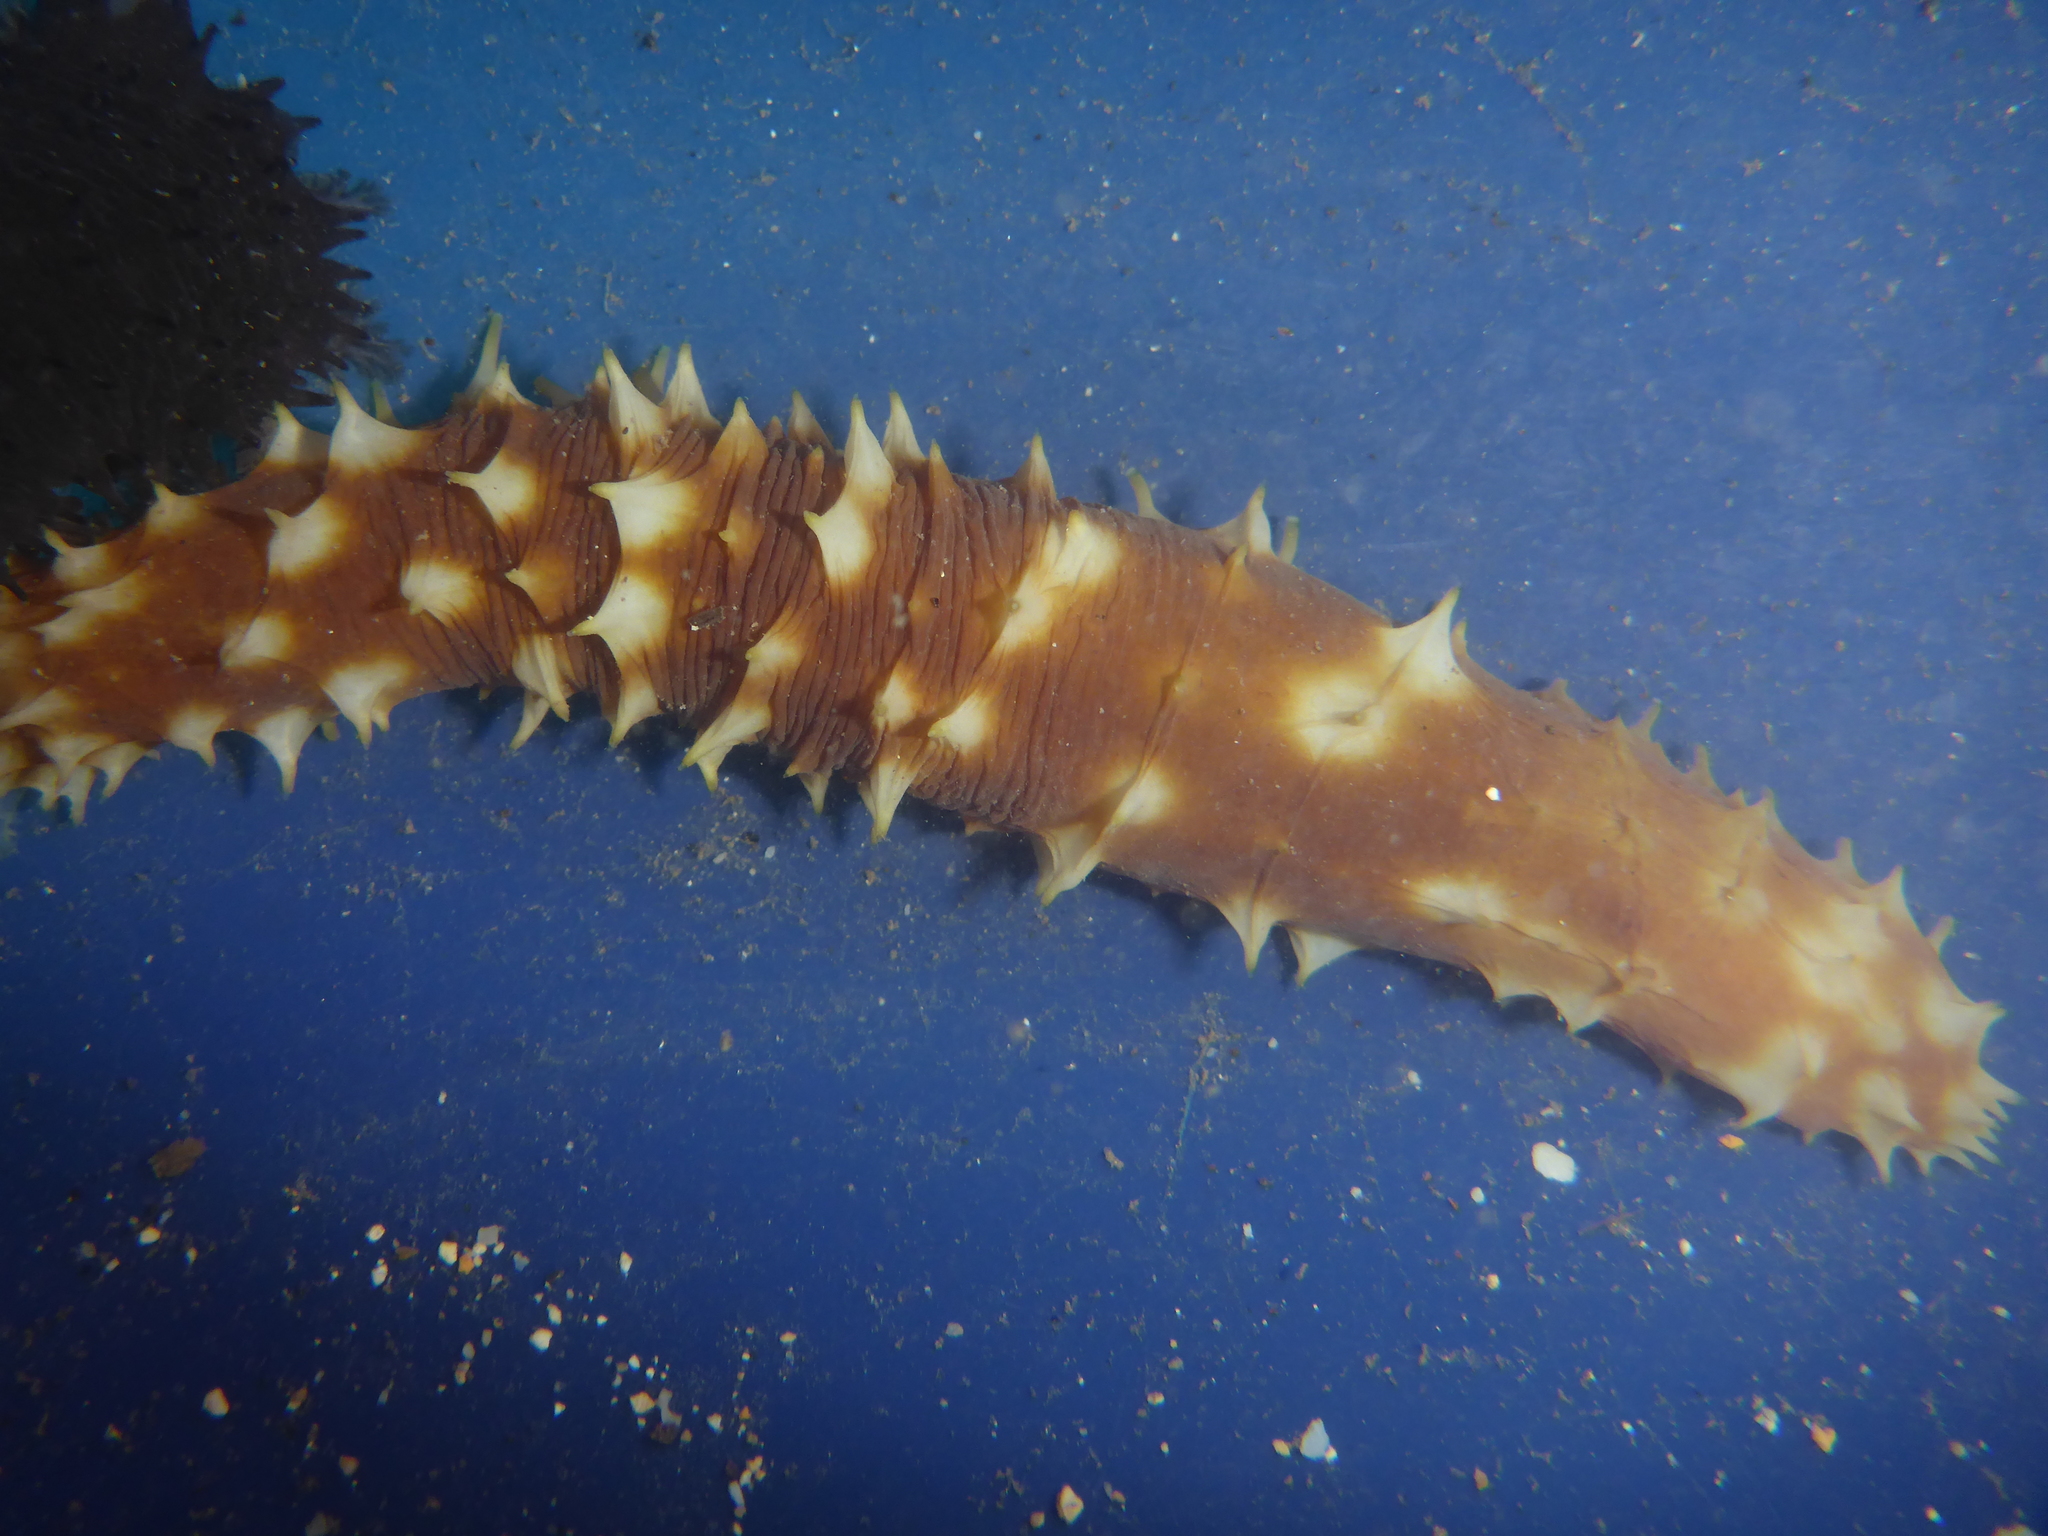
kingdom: Animalia
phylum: Echinodermata
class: Holothuroidea
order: Holothuriida
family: Holothuriidae
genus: Holothuria
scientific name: Holothuria hilla
